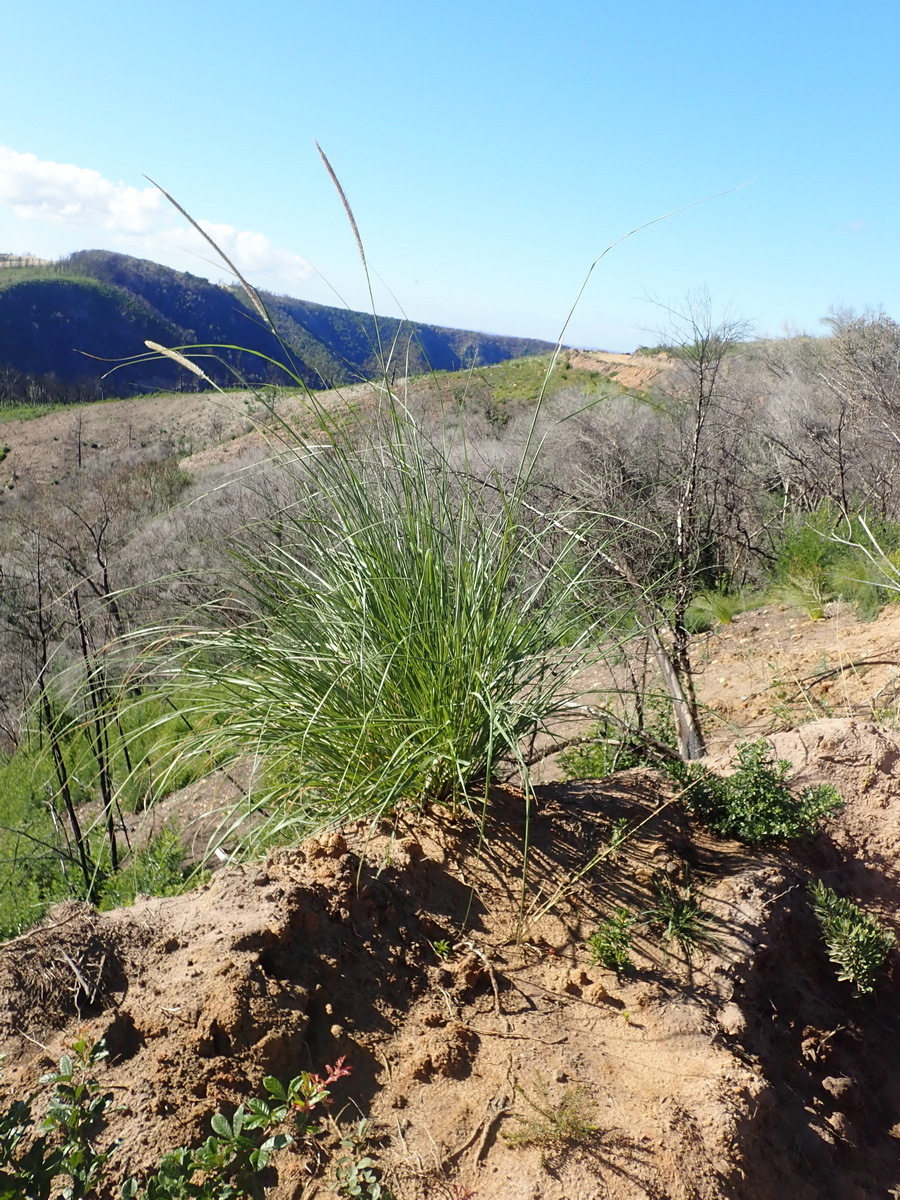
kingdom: Plantae
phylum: Tracheophyta
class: Liliopsida
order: Poales
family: Poaceae
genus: Cenchrus
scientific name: Cenchrus caudatus
